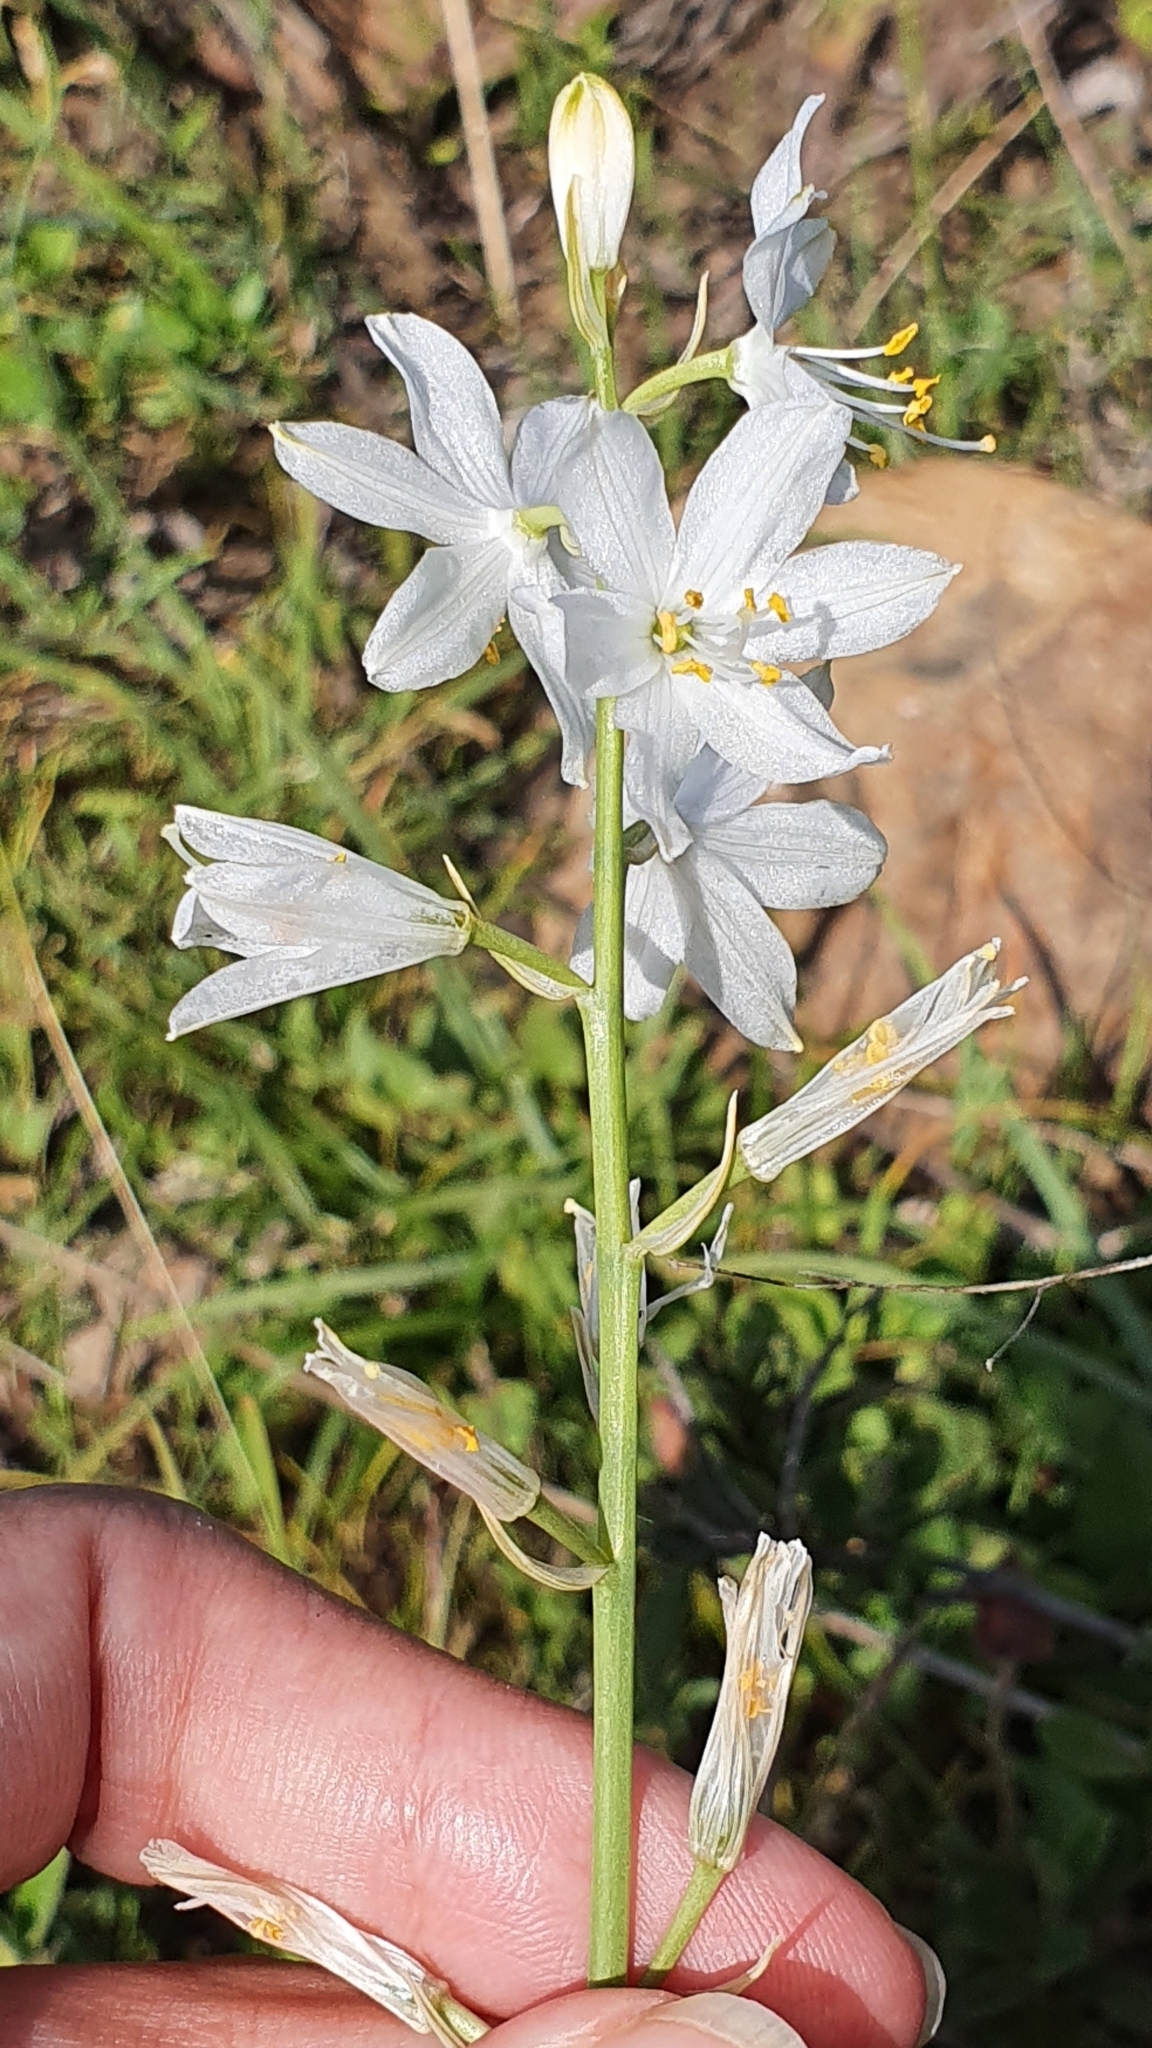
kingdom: Plantae
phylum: Tracheophyta
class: Liliopsida
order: Asparagales
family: Asparagaceae
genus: Anthericum
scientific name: Anthericum baeticum
